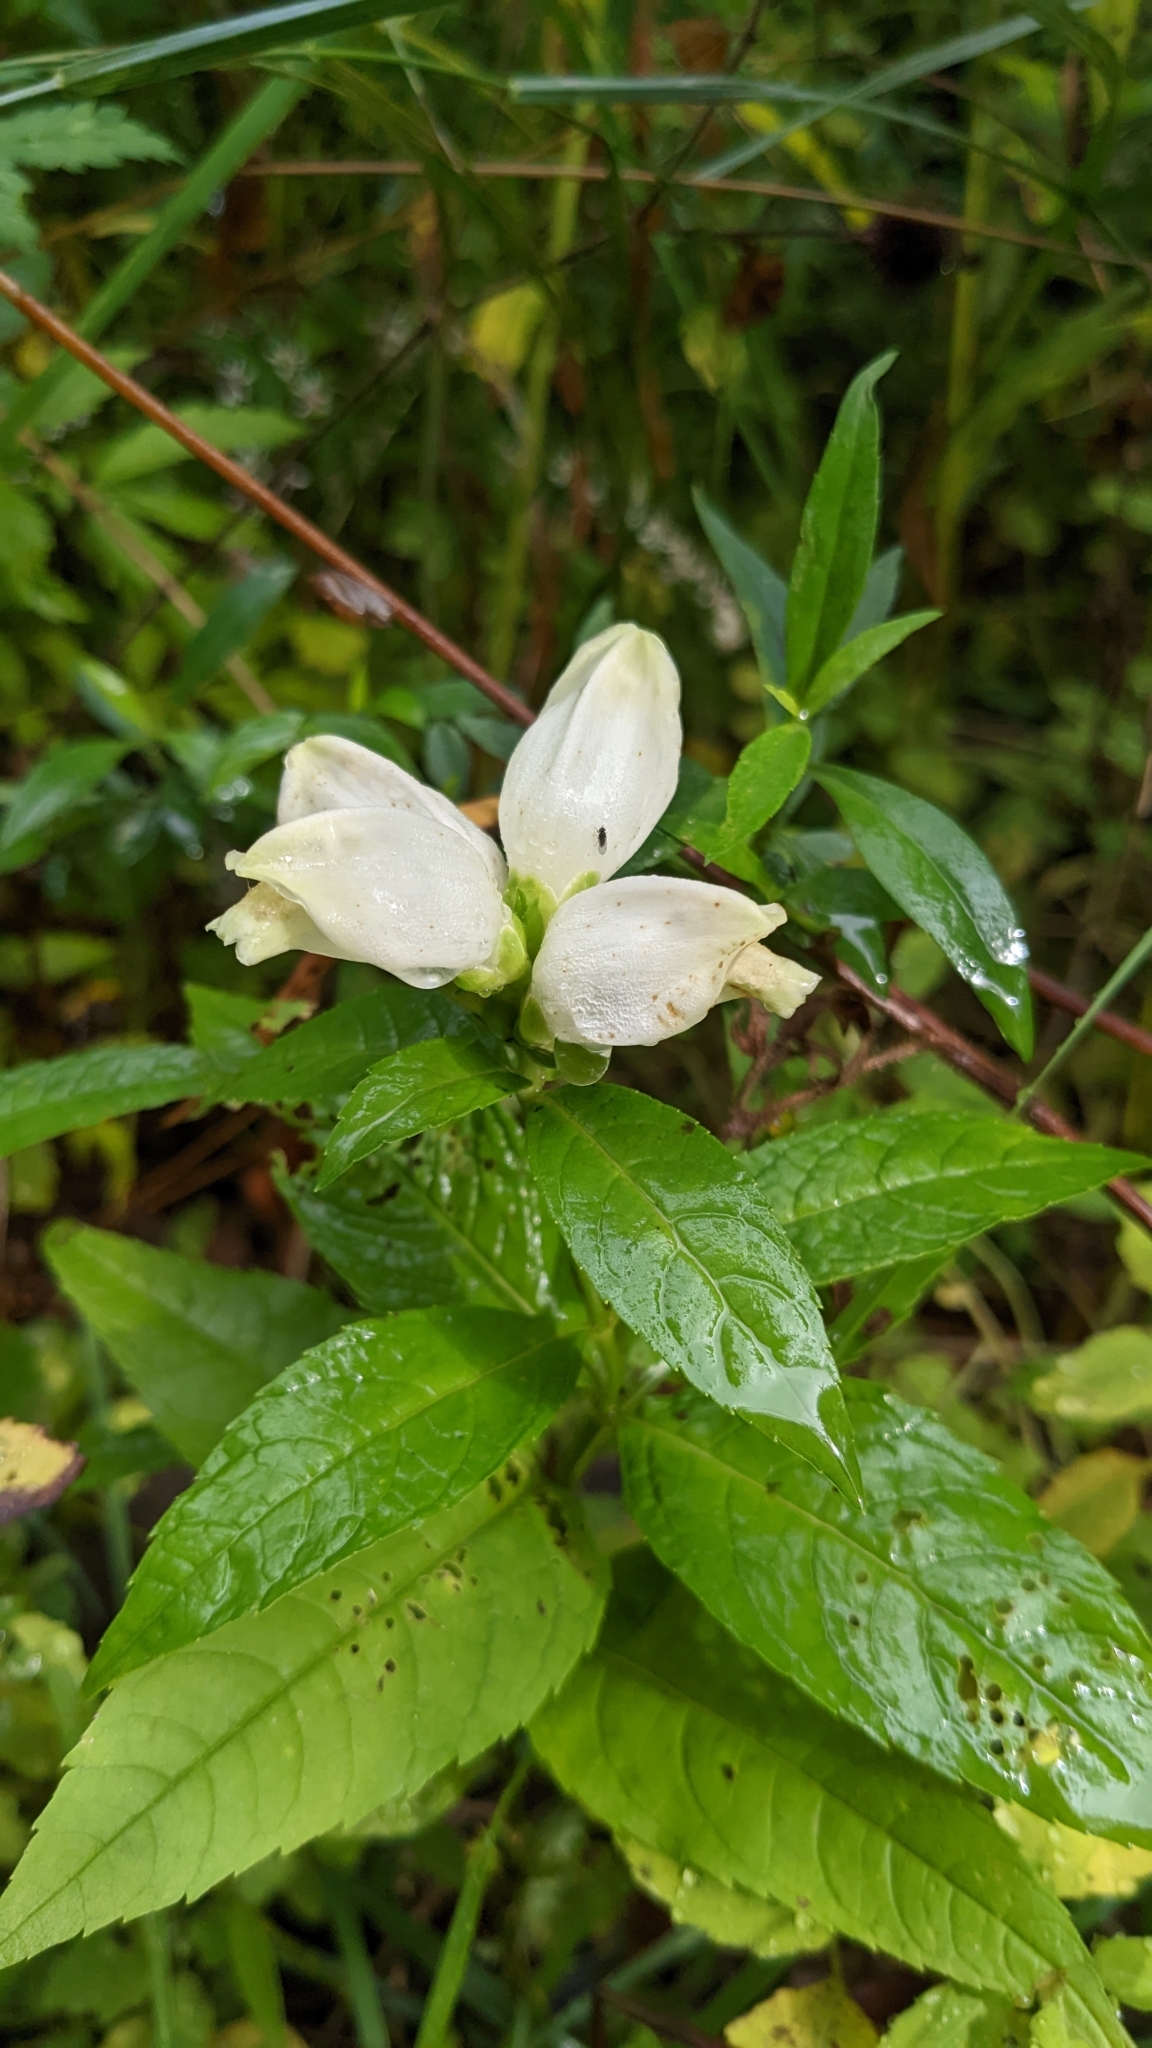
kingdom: Plantae
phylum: Tracheophyta
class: Magnoliopsida
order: Lamiales
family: Plantaginaceae
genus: Chelone
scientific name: Chelone glabra
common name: Snakehead
